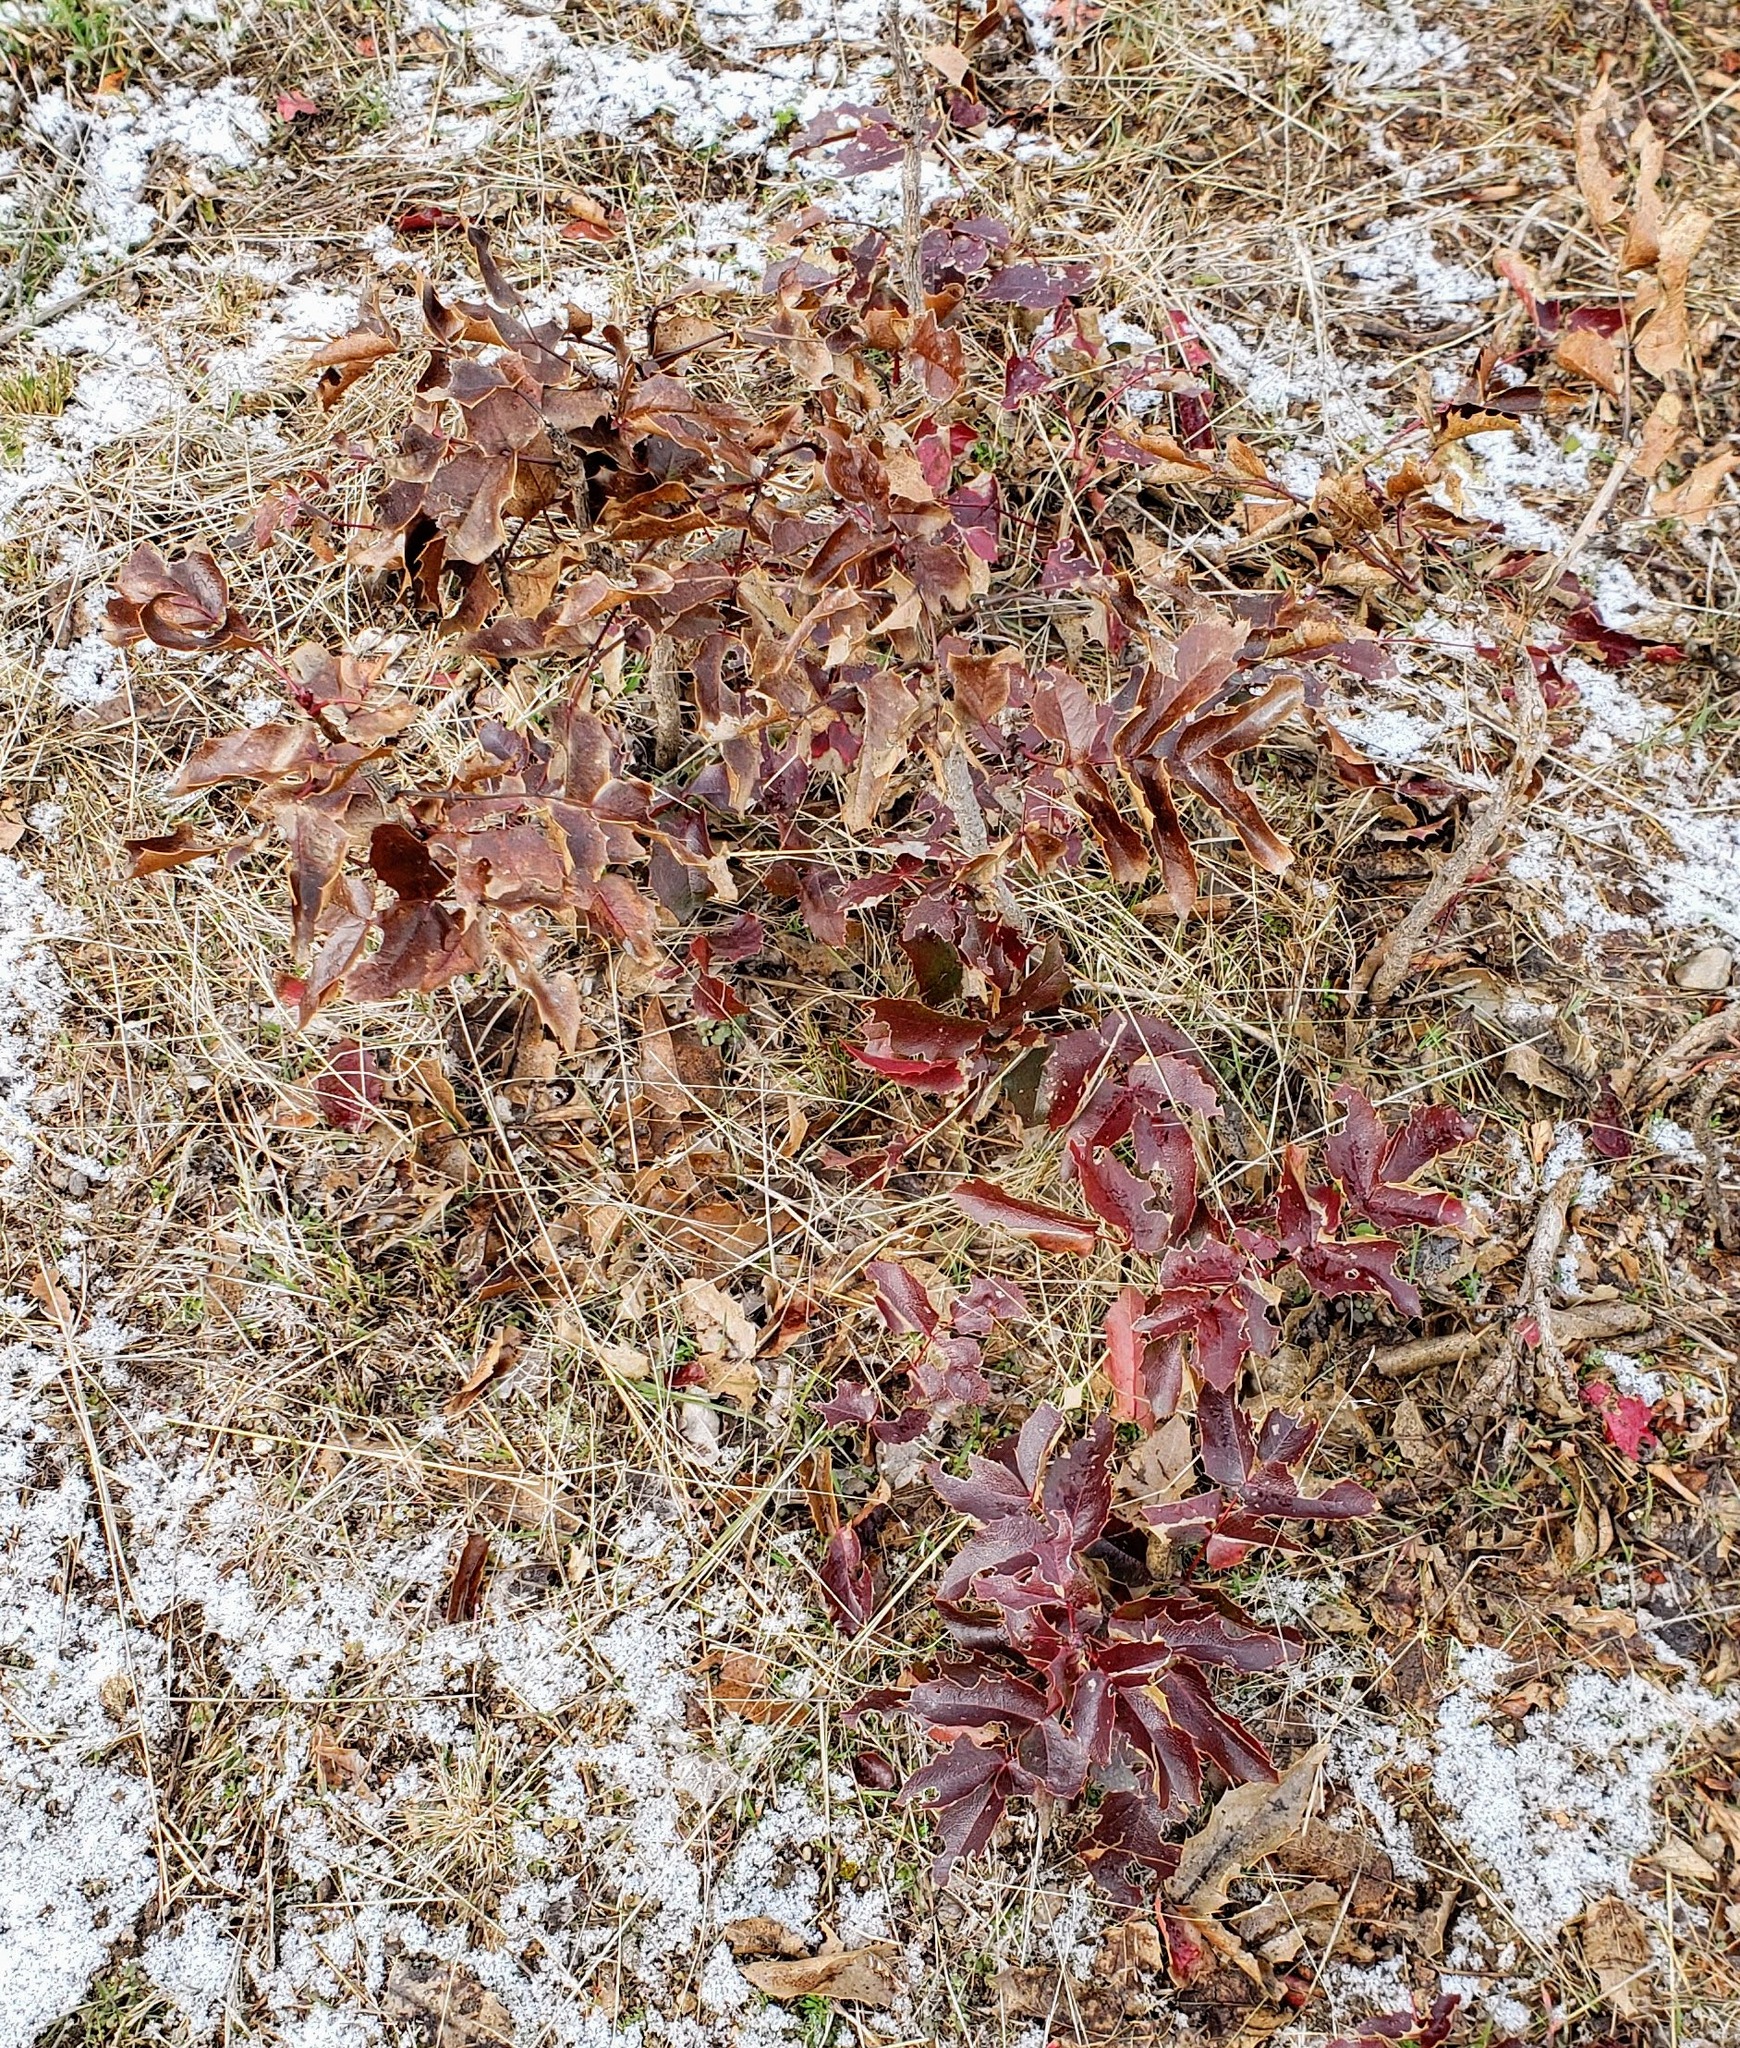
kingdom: Plantae
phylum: Tracheophyta
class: Magnoliopsida
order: Ranunculales
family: Berberidaceae
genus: Mahonia
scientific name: Mahonia aquifolium
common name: Oregon-grape
